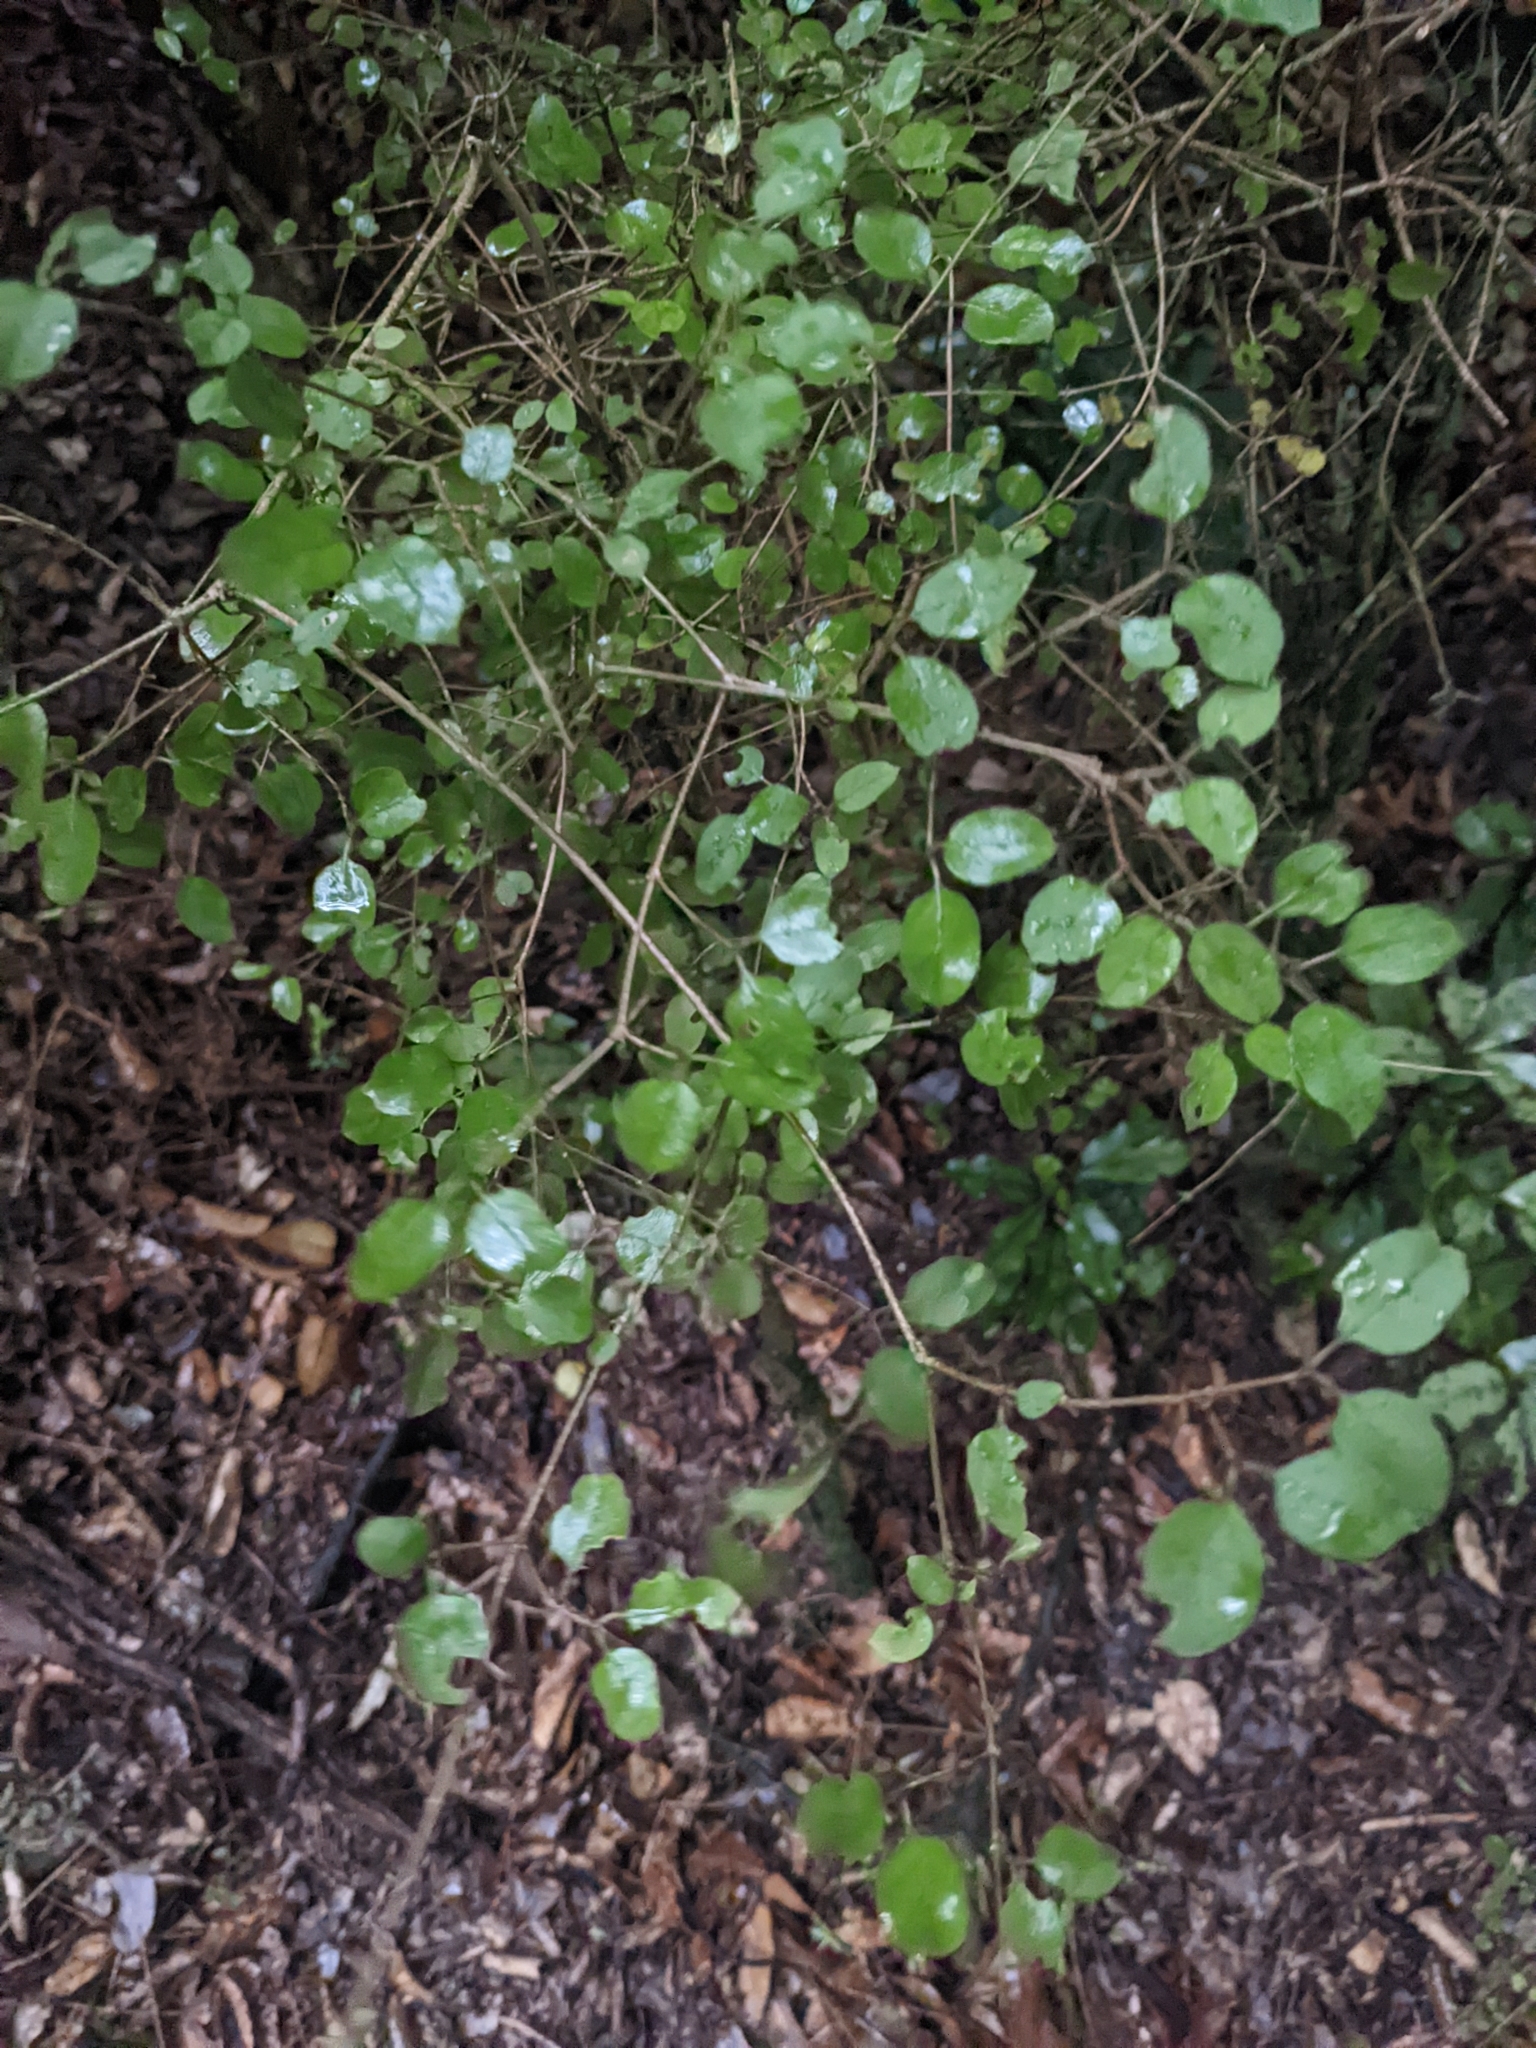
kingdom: Plantae
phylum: Tracheophyta
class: Magnoliopsida
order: Gentianales
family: Rubiaceae
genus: Coprosma
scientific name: Coprosma rotundifolia
